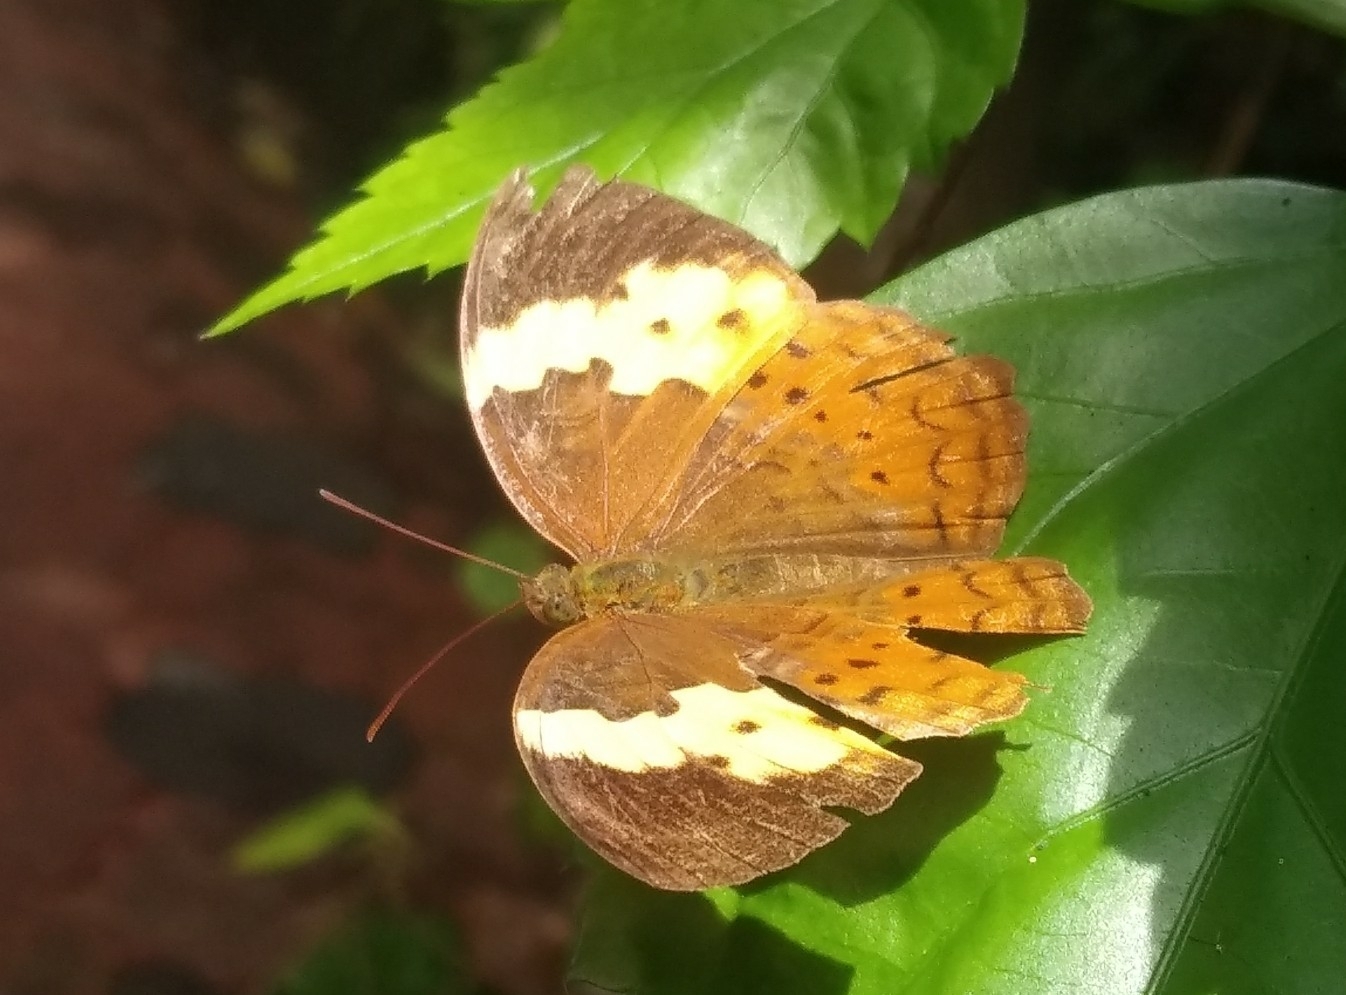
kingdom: Animalia
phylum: Arthropoda
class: Insecta
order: Lepidoptera
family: Nymphalidae
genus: Cupha
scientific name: Cupha erymanthis
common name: Rustic
